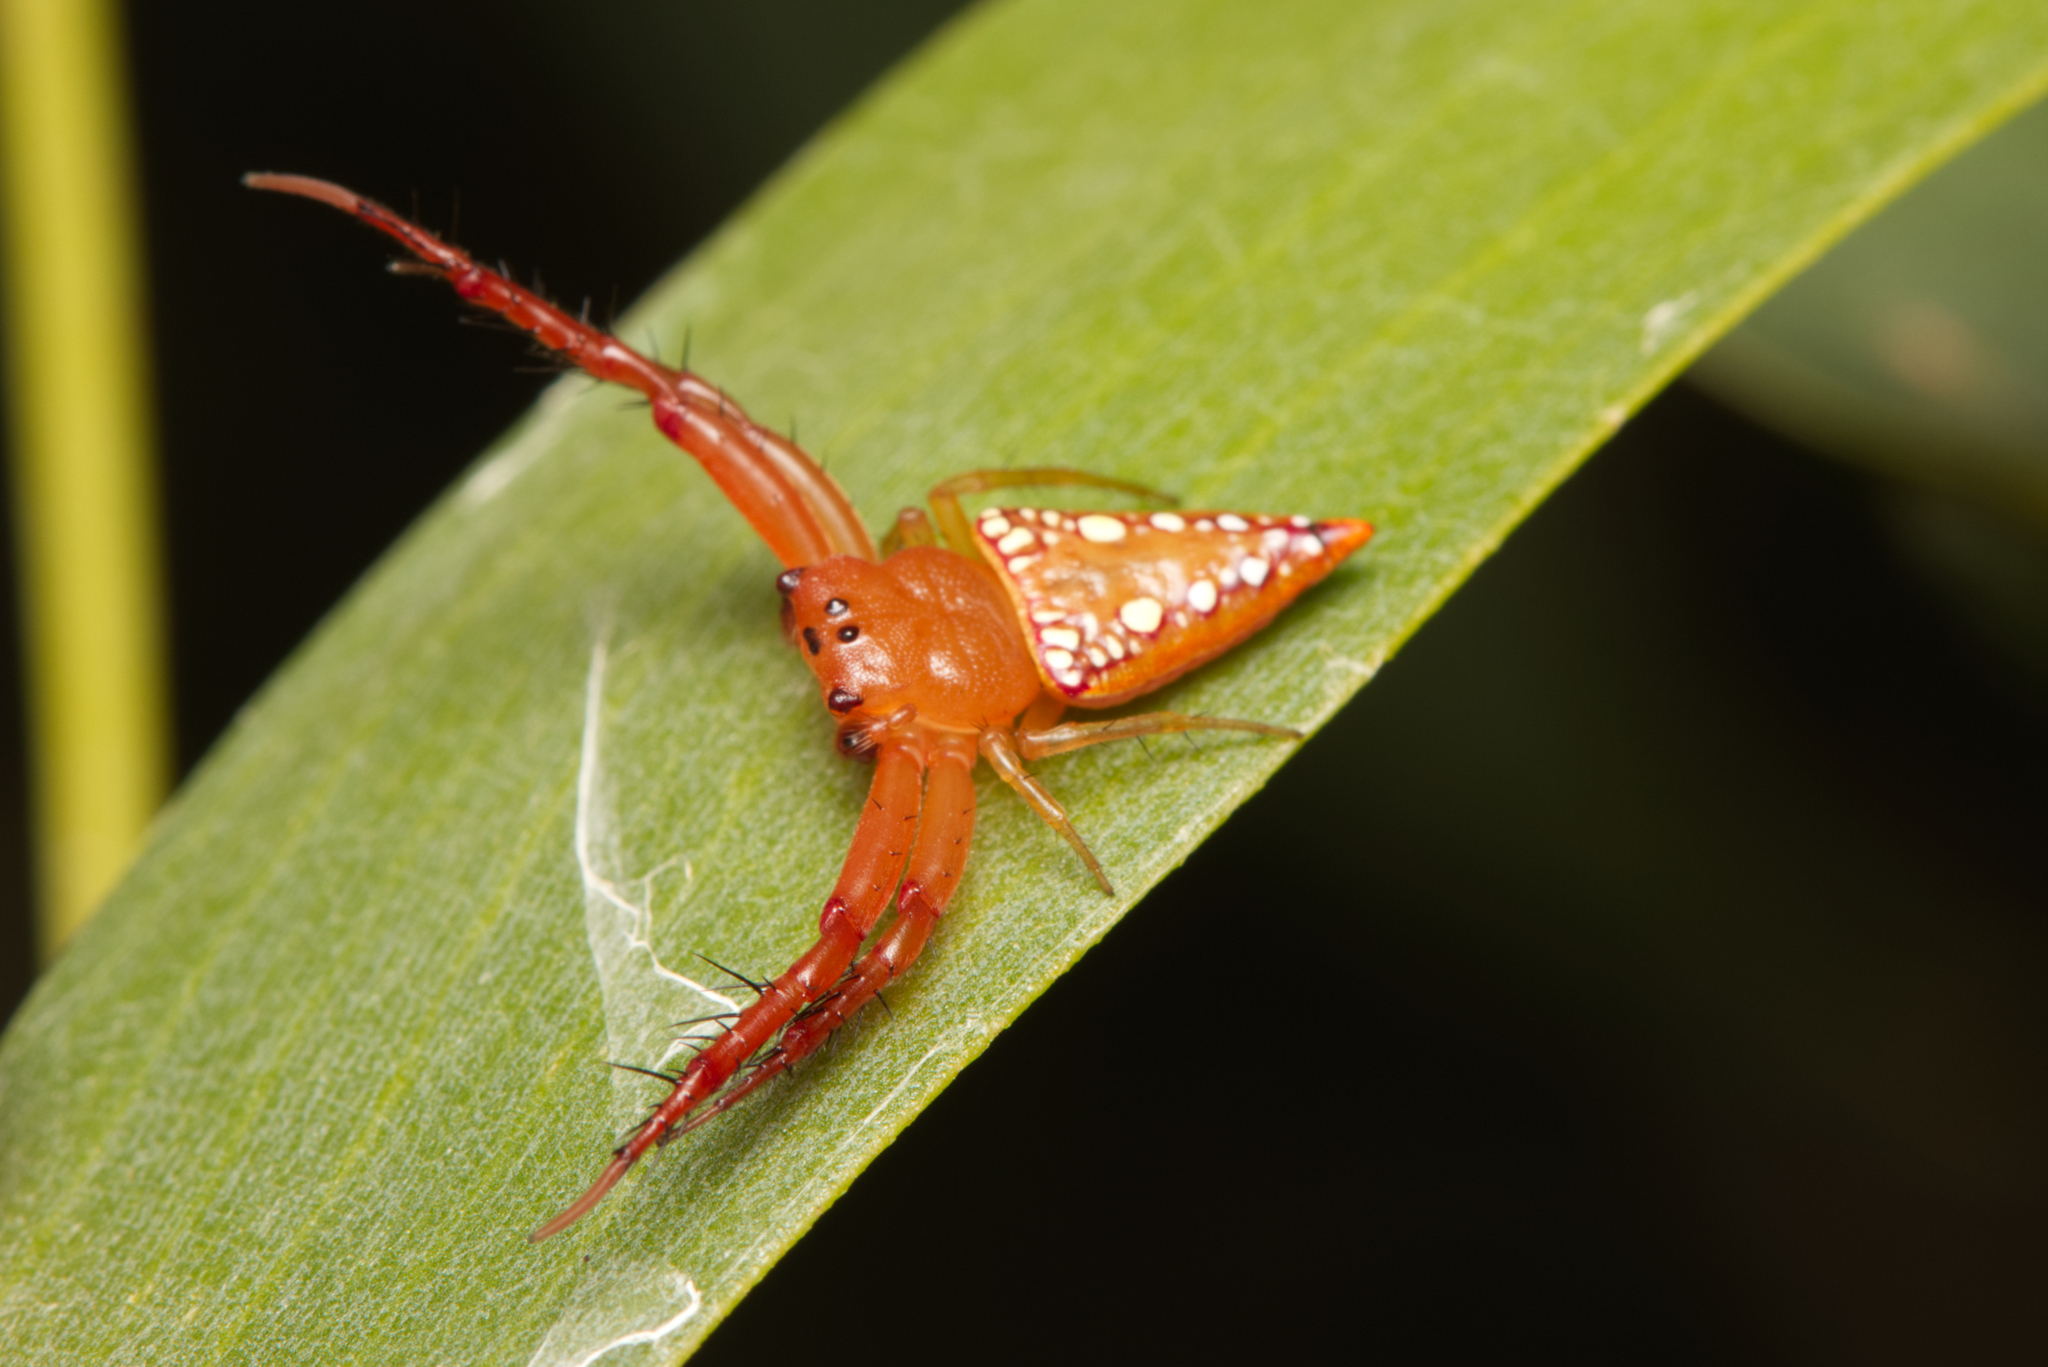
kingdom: Animalia
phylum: Arthropoda
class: Arachnida
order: Araneae
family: Arkyidae
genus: Arkys
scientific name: Arkys walckenaeri
